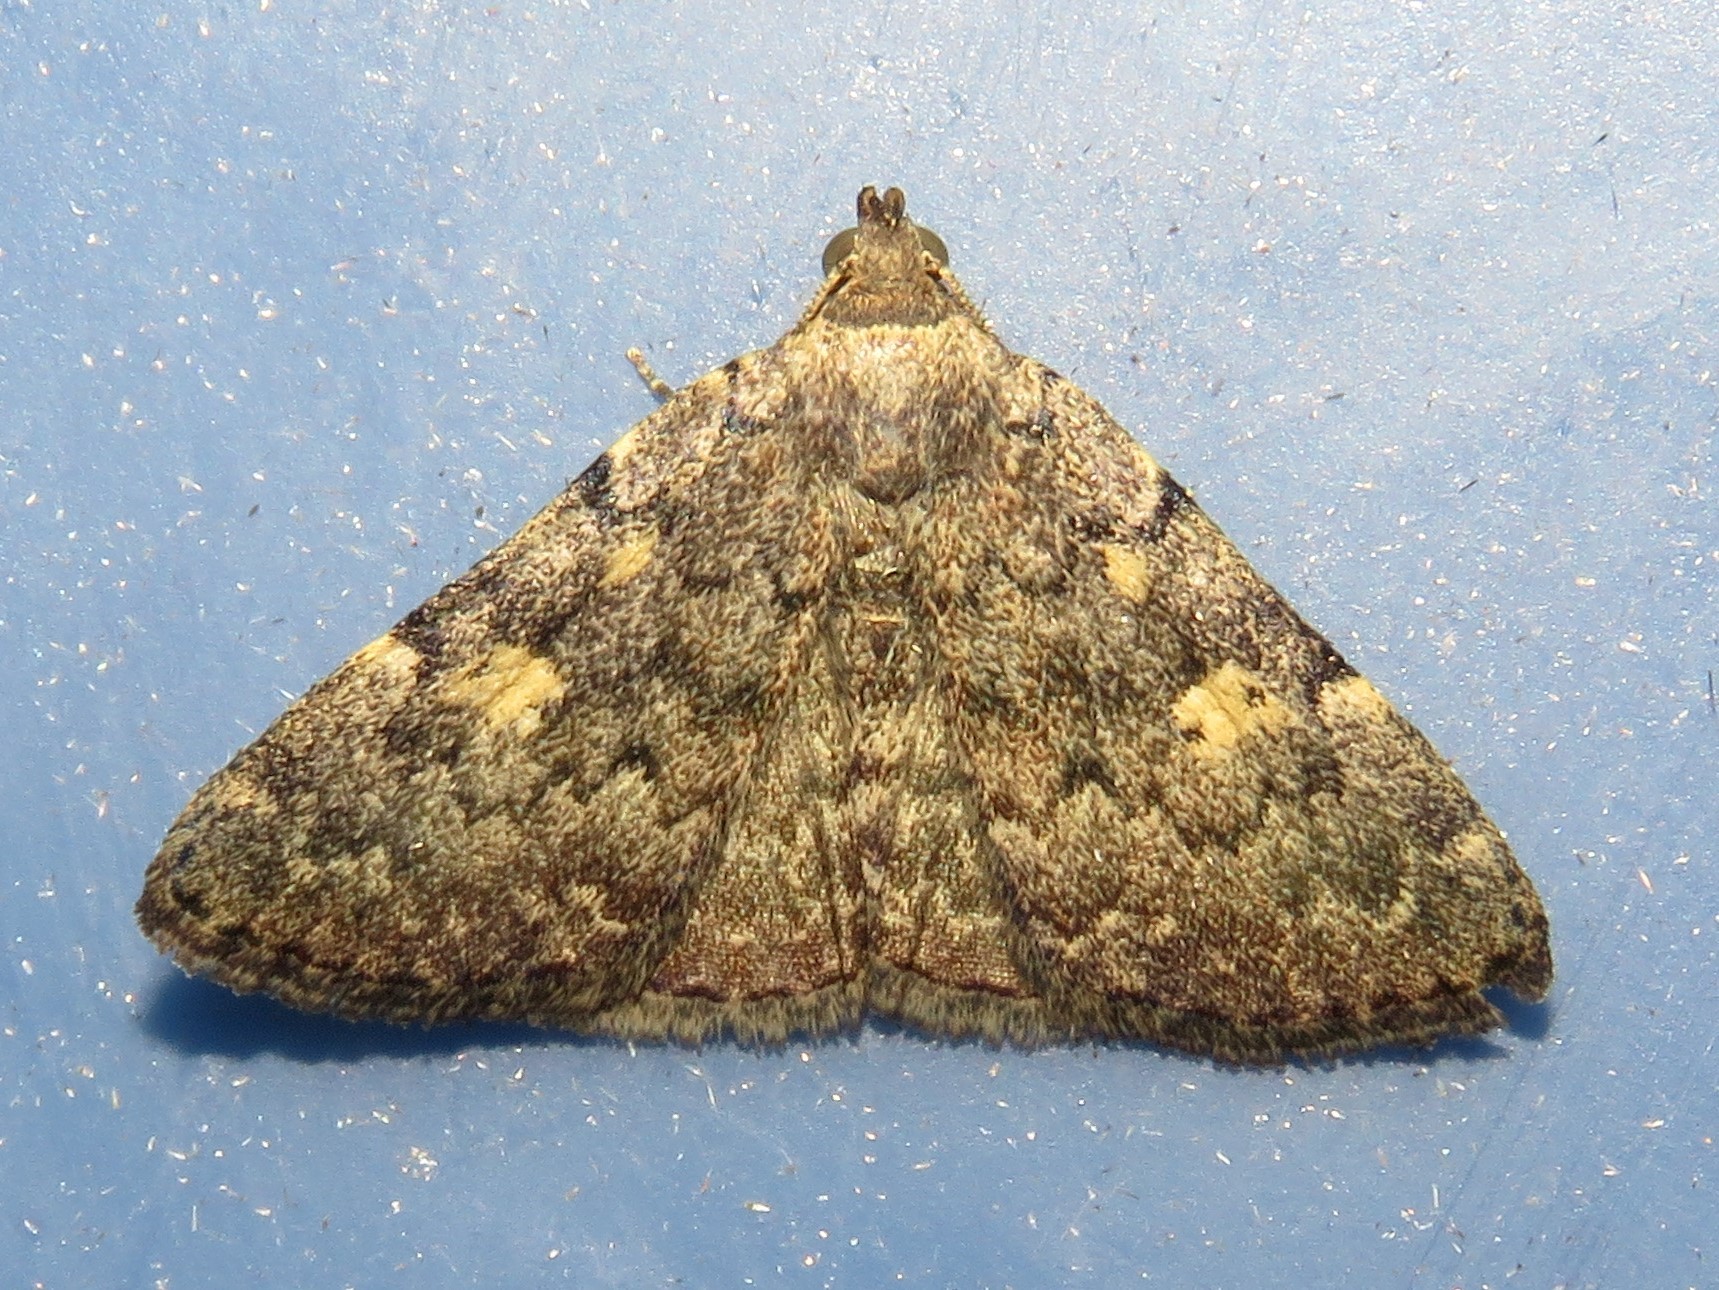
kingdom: Animalia
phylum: Arthropoda
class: Insecta
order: Lepidoptera
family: Erebidae
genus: Idia
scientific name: Idia aemula
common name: Common idia moth
